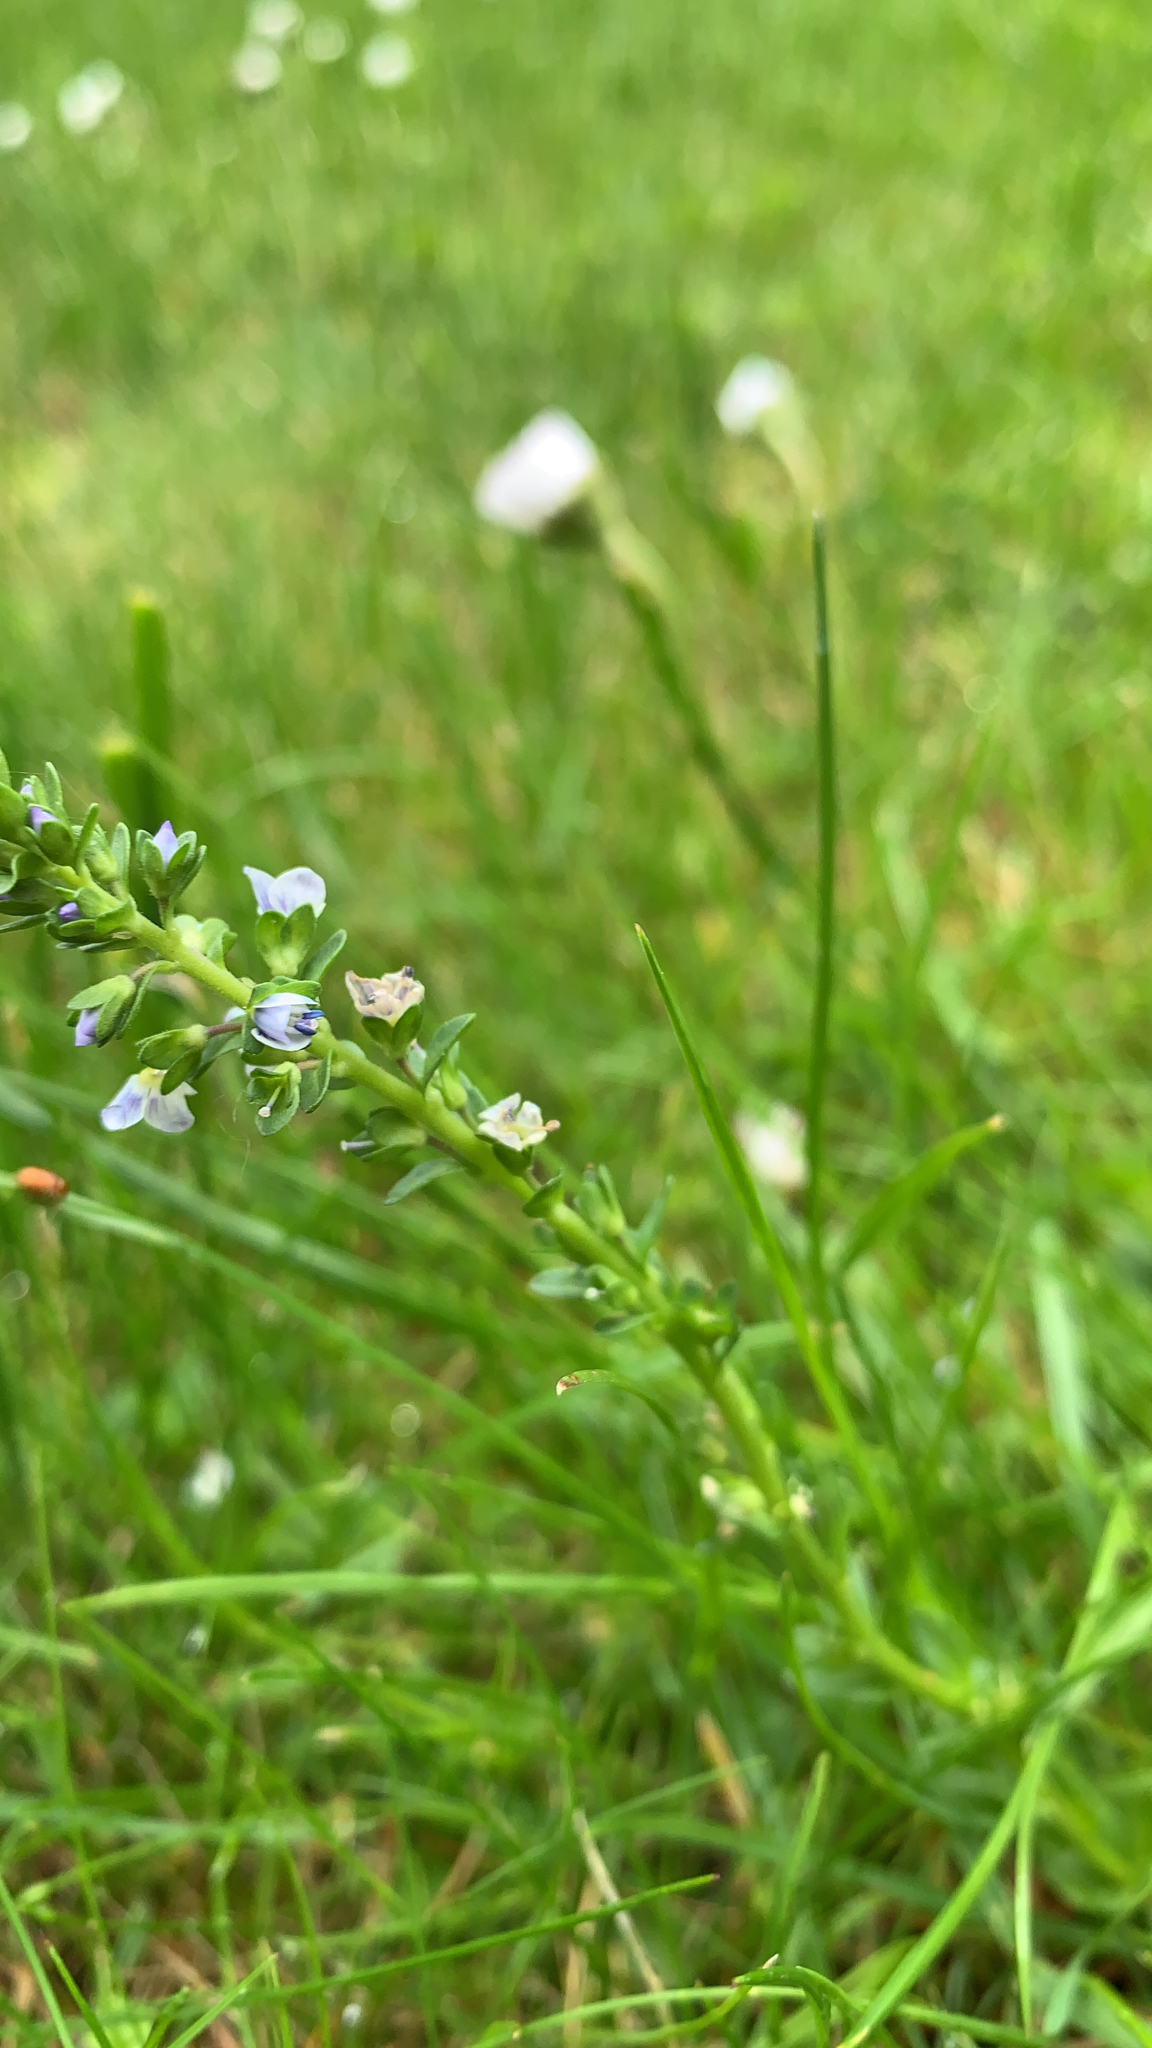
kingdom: Plantae
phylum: Tracheophyta
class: Magnoliopsida
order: Lamiales
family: Plantaginaceae
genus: Veronica
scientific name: Veronica serpyllifolia
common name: Thyme-leaved speedwell
